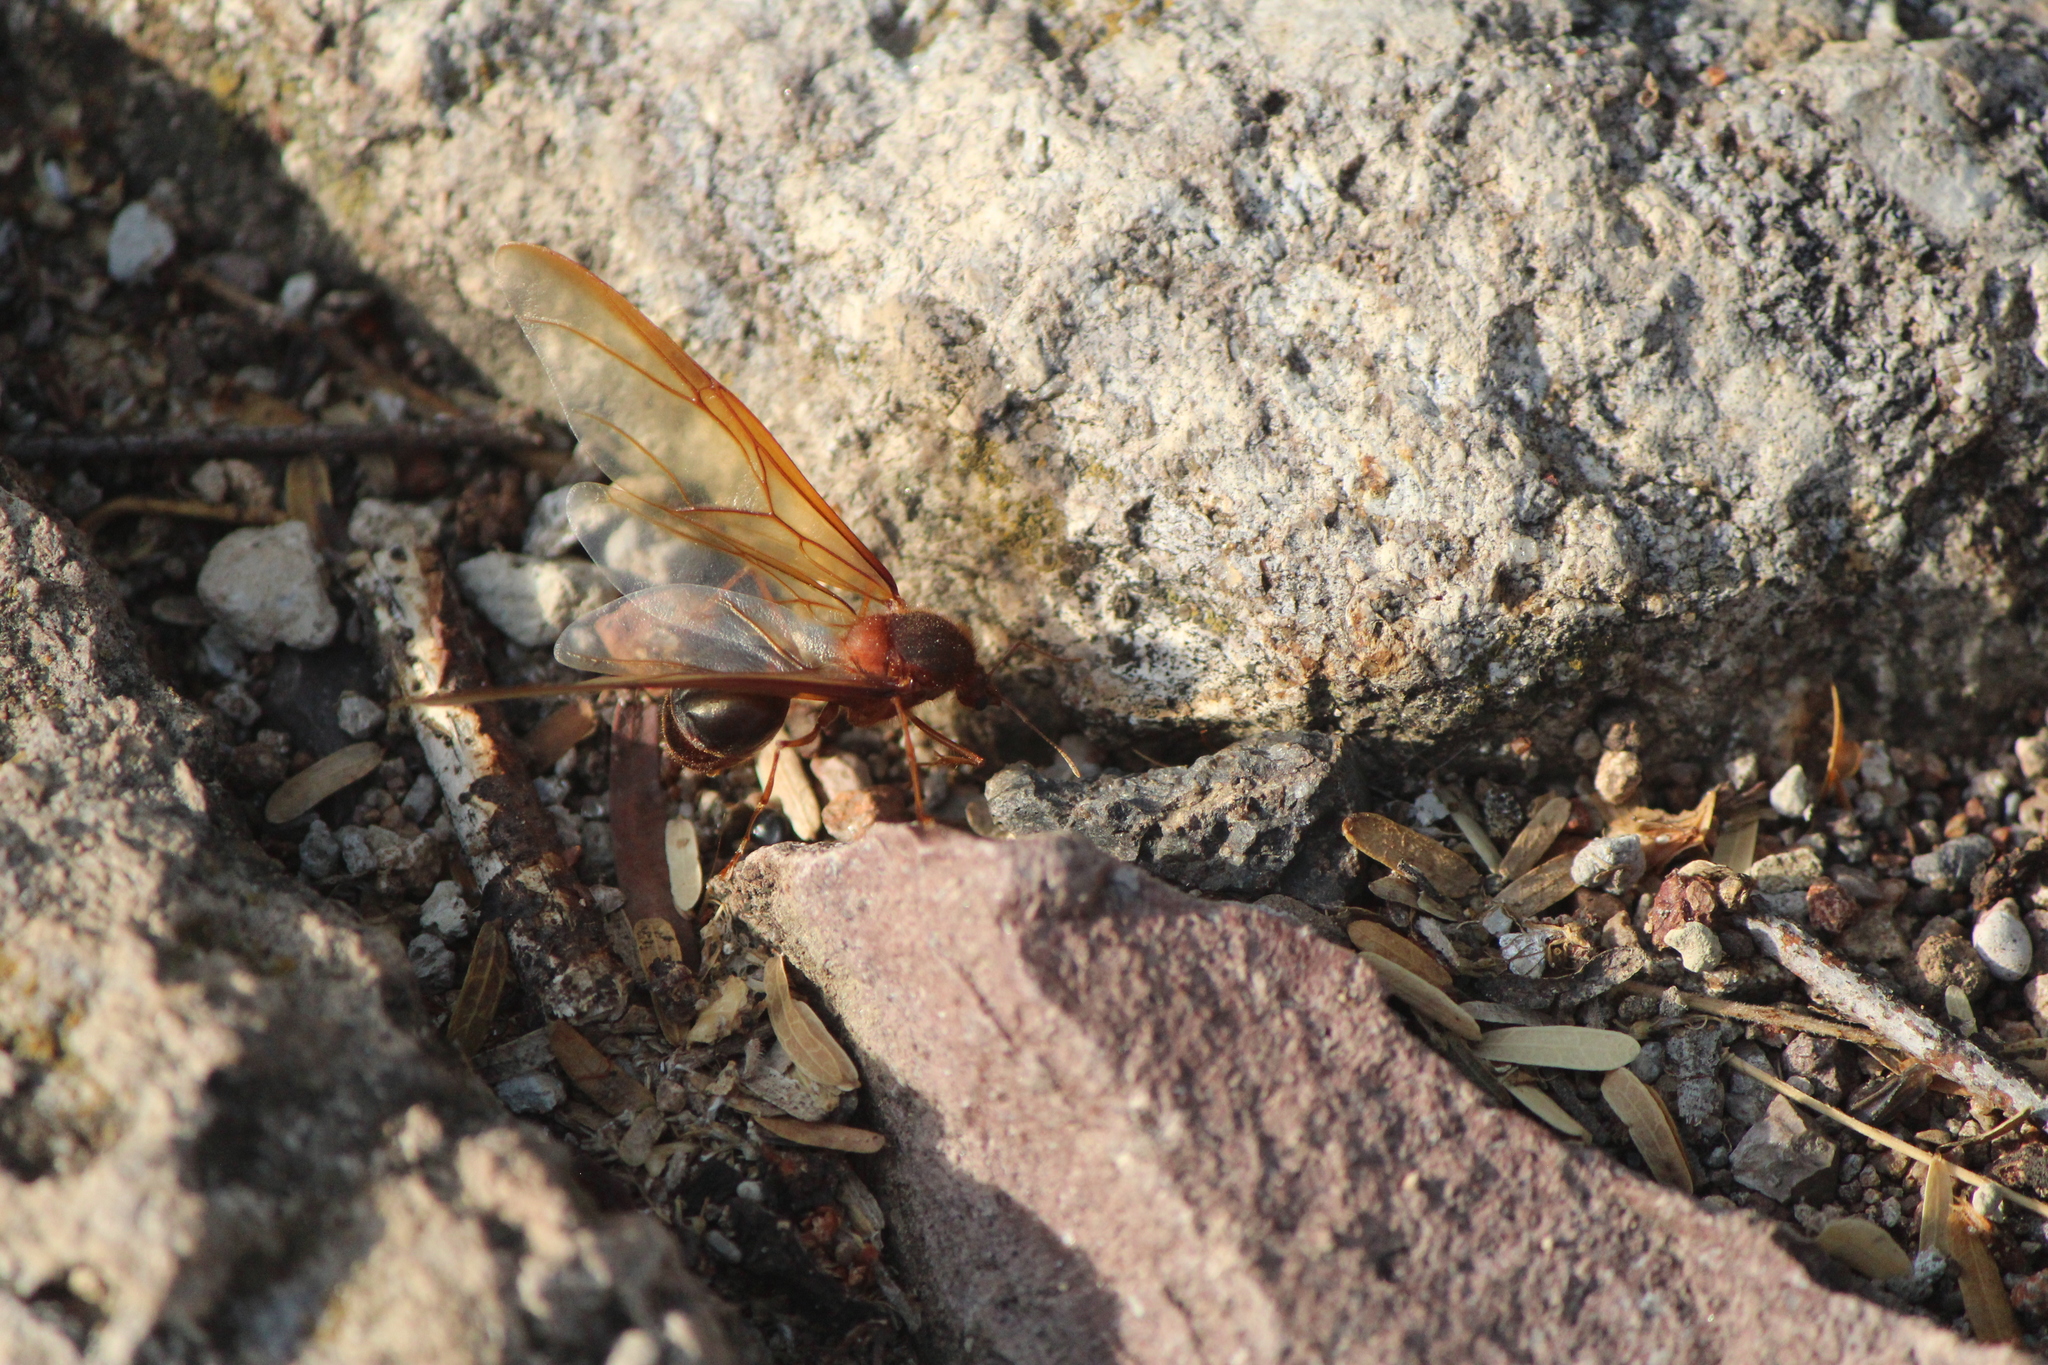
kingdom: Animalia
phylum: Arthropoda
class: Insecta
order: Hymenoptera
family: Formicidae
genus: Atta
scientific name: Atta mexicana
